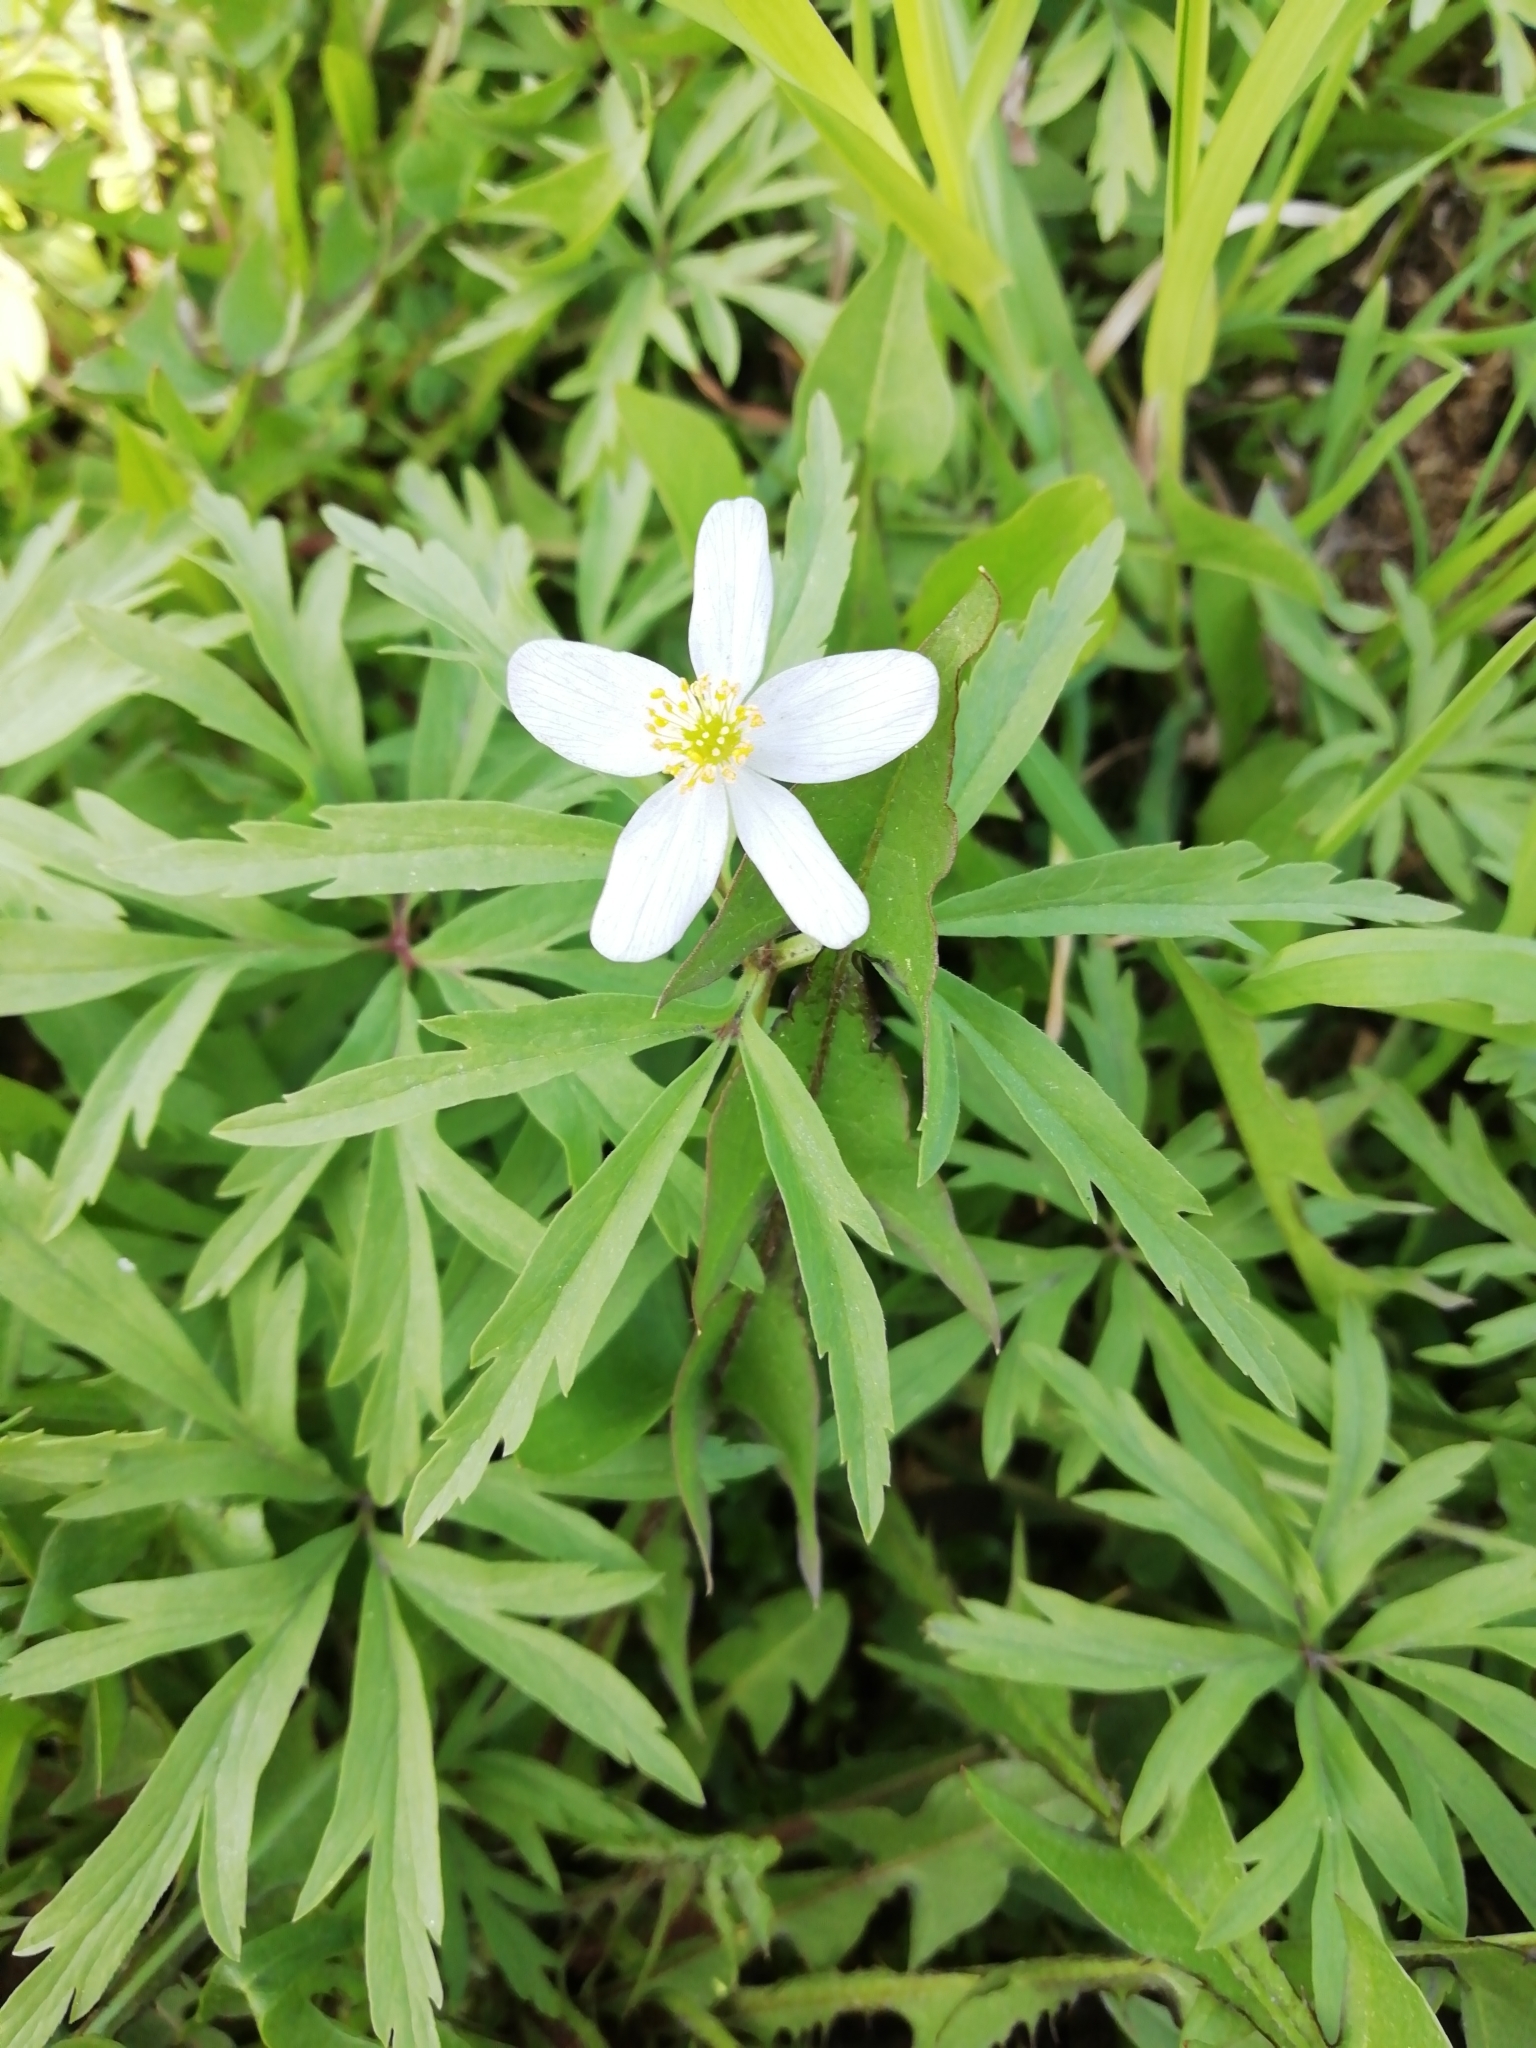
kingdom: Plantae
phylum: Tracheophyta
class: Magnoliopsida
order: Ranunculales
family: Ranunculaceae
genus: Anemone
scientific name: Anemone caerulea
